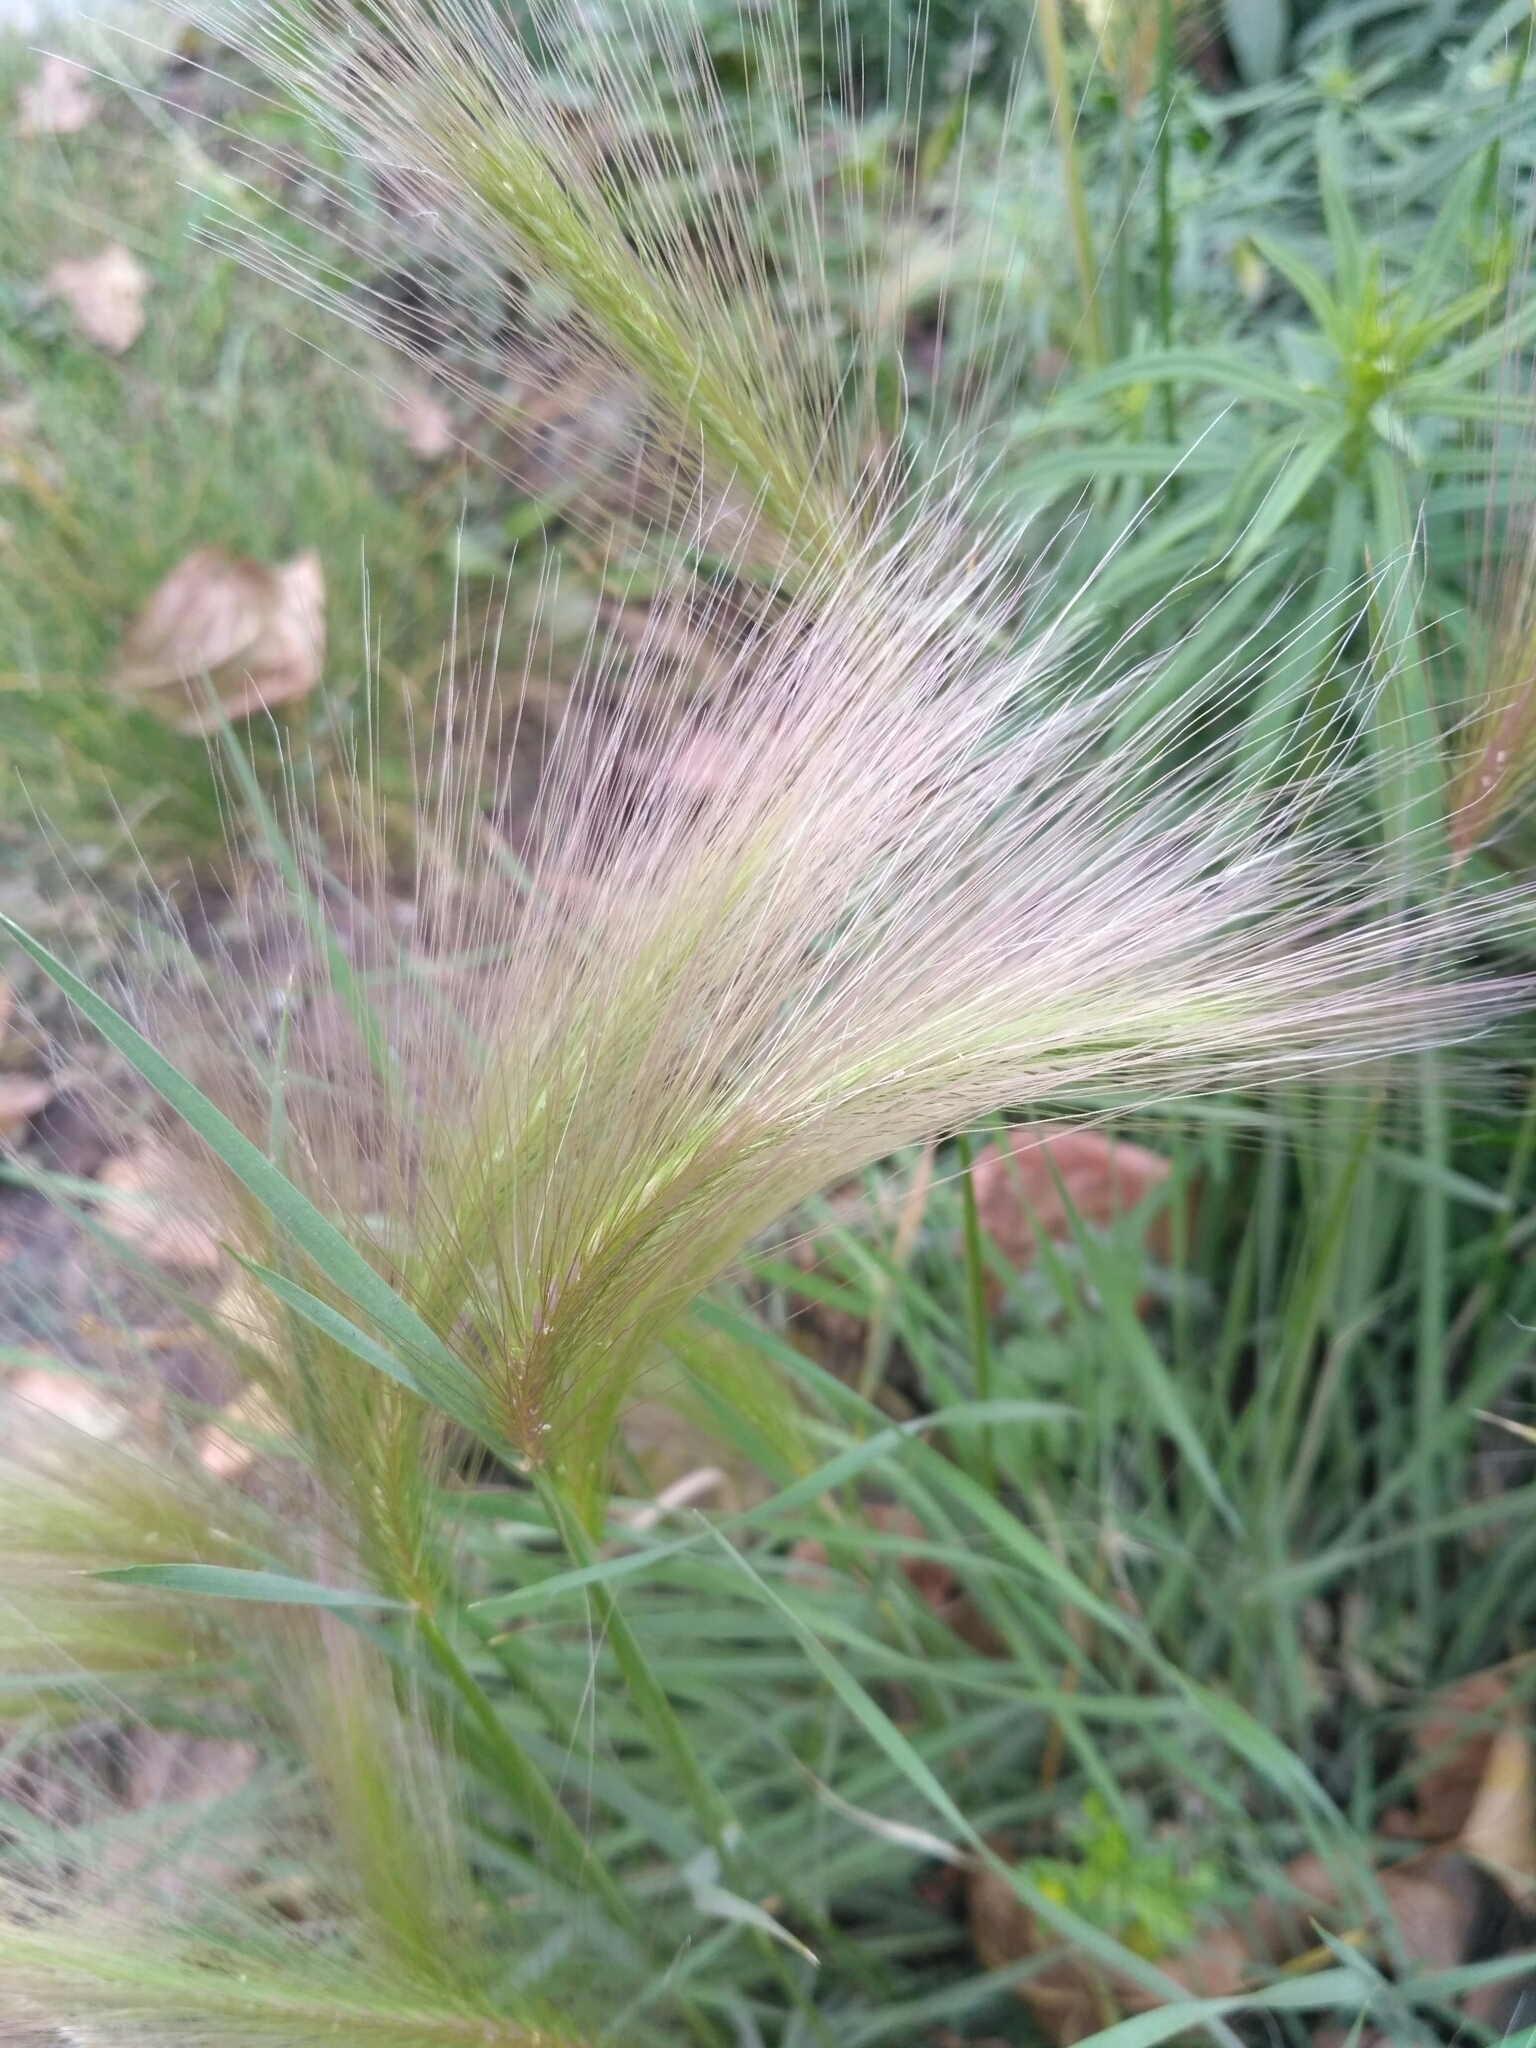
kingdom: Plantae
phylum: Tracheophyta
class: Liliopsida
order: Poales
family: Poaceae
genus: Hordeum
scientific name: Hordeum jubatum
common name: Foxtail barley
